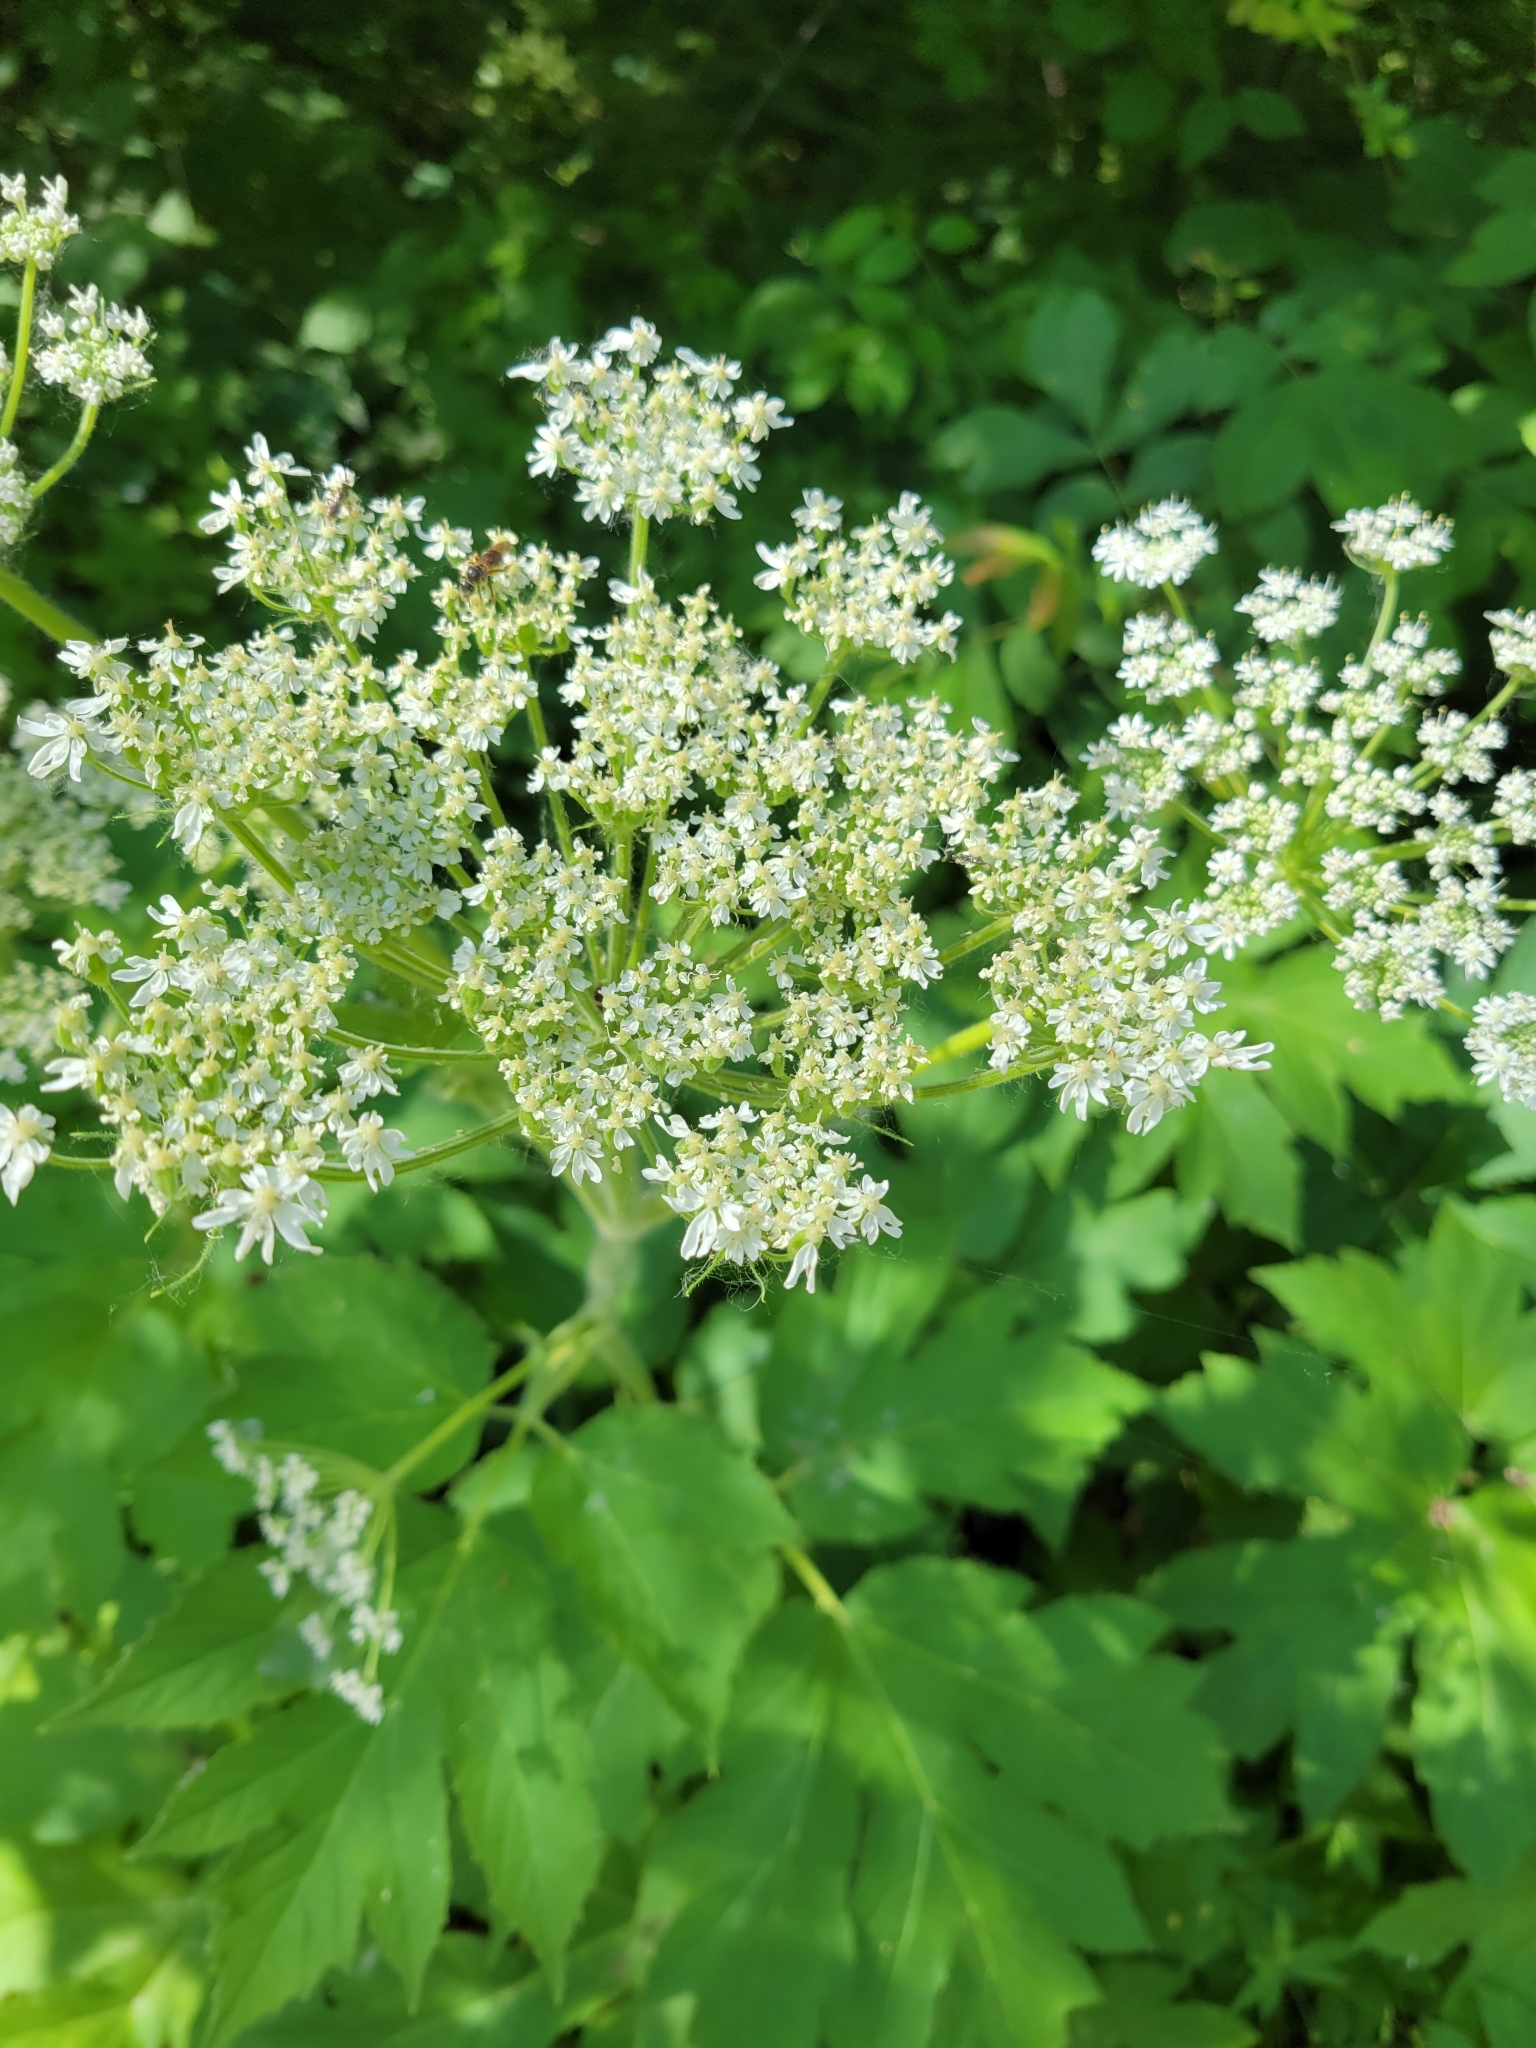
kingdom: Plantae
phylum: Tracheophyta
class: Magnoliopsida
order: Apiales
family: Apiaceae
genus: Heracleum
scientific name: Heracleum maximum
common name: American cow parsnip
